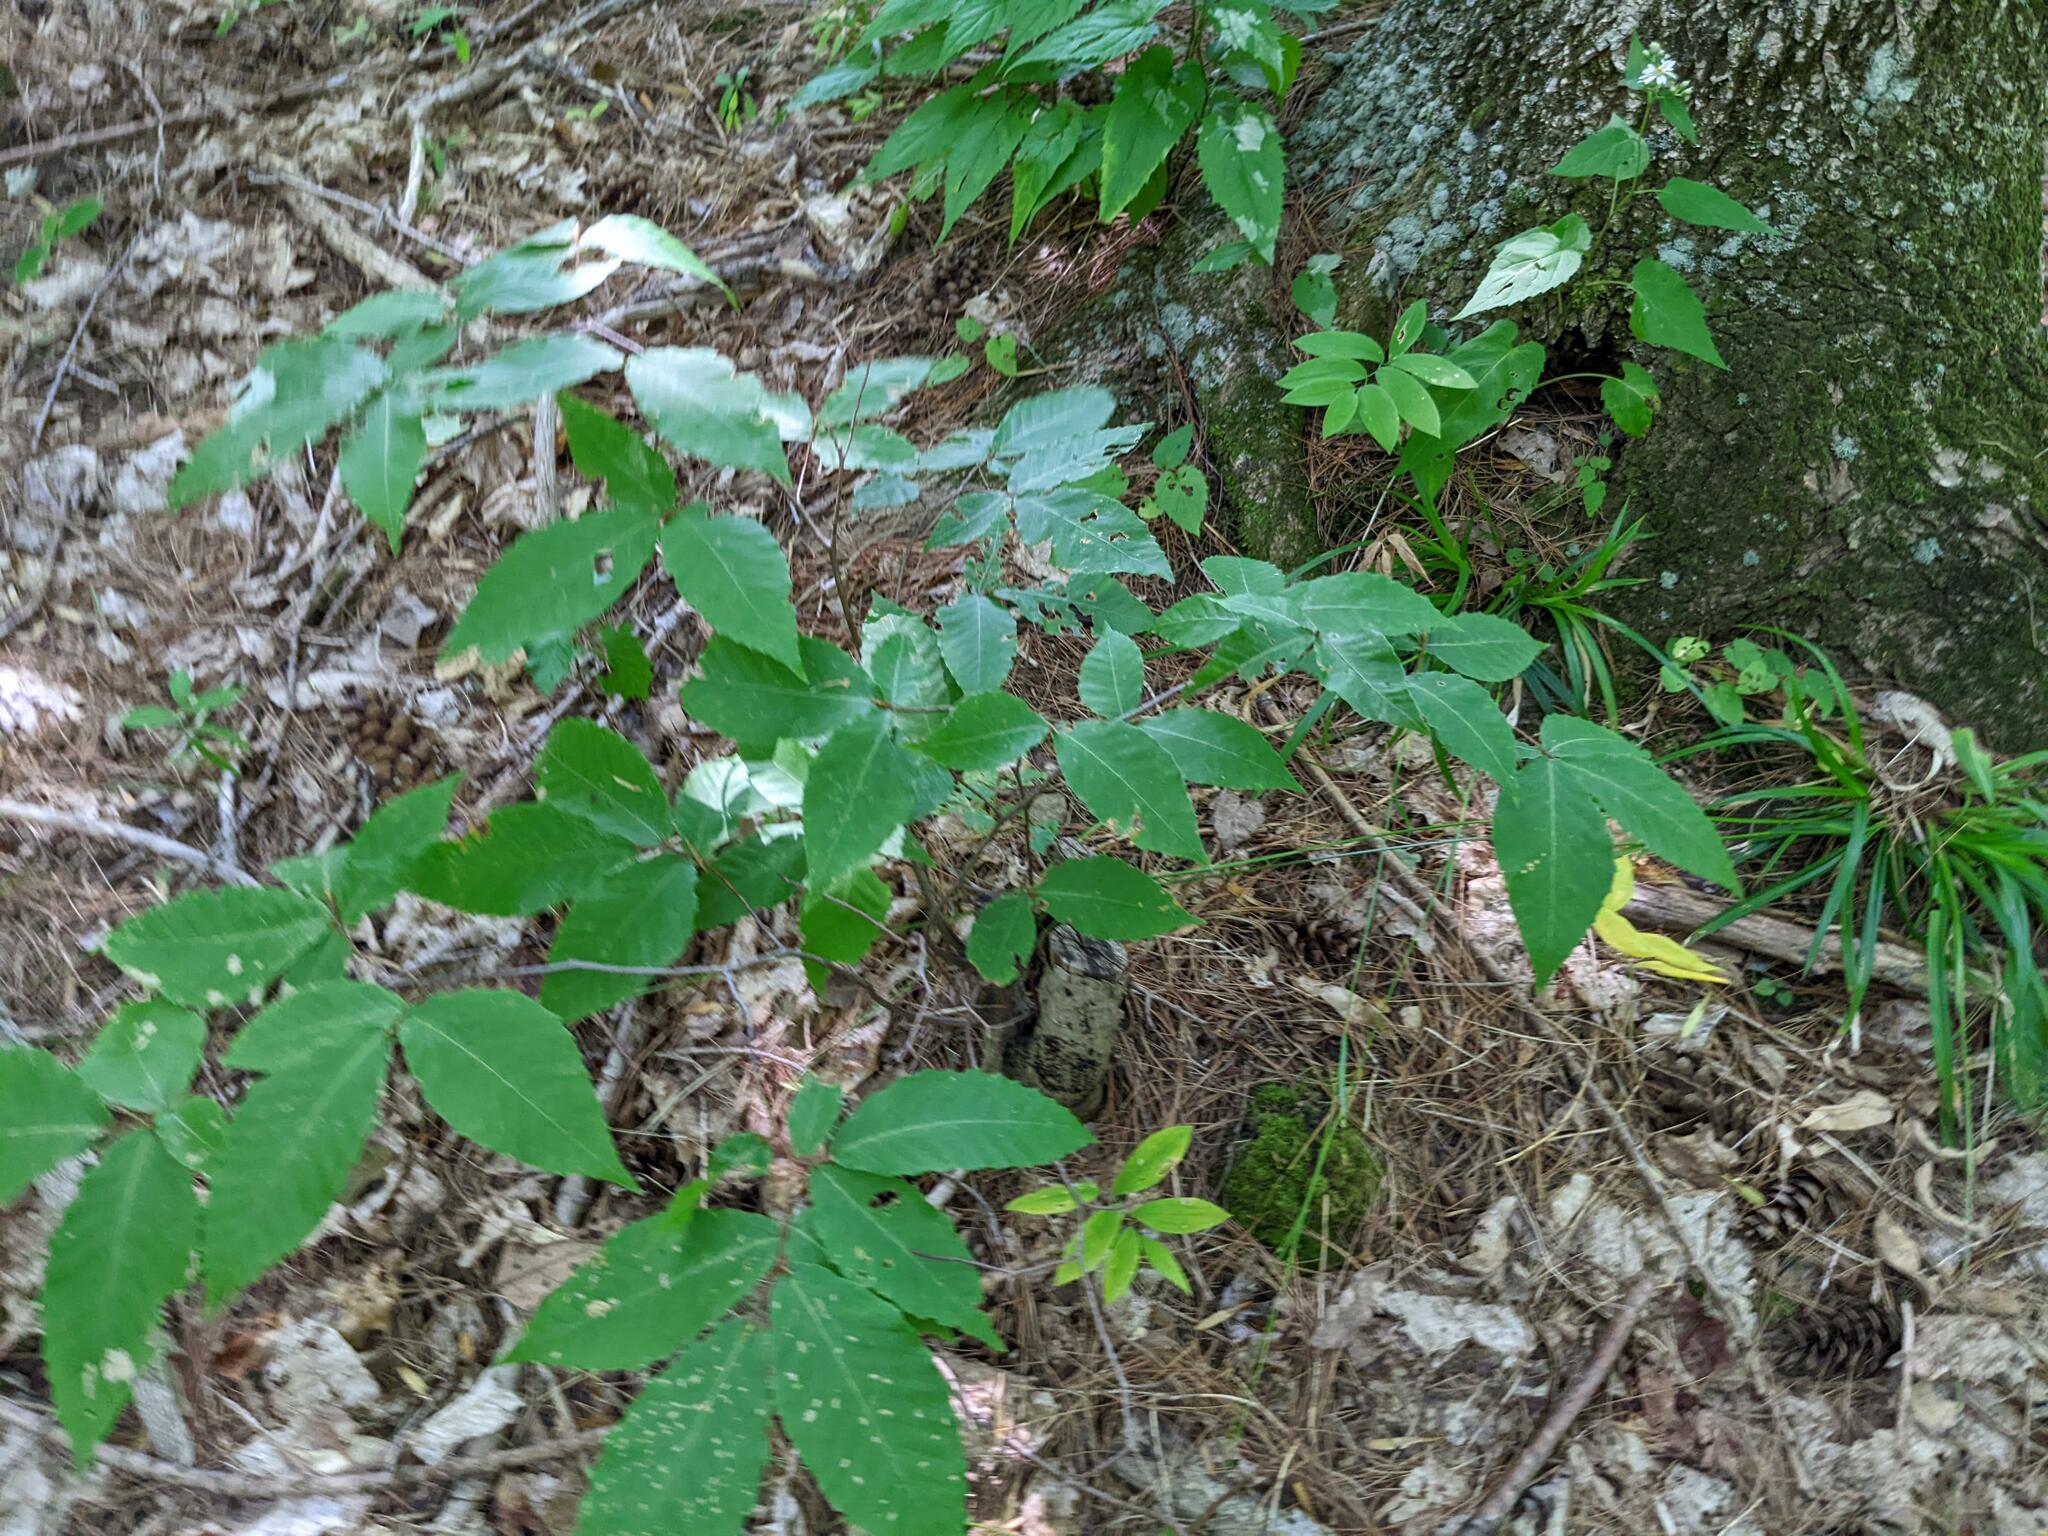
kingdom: Plantae
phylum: Tracheophyta
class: Magnoliopsida
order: Fagales
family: Fagaceae
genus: Fagus
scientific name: Fagus grandifolia
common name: American beech
